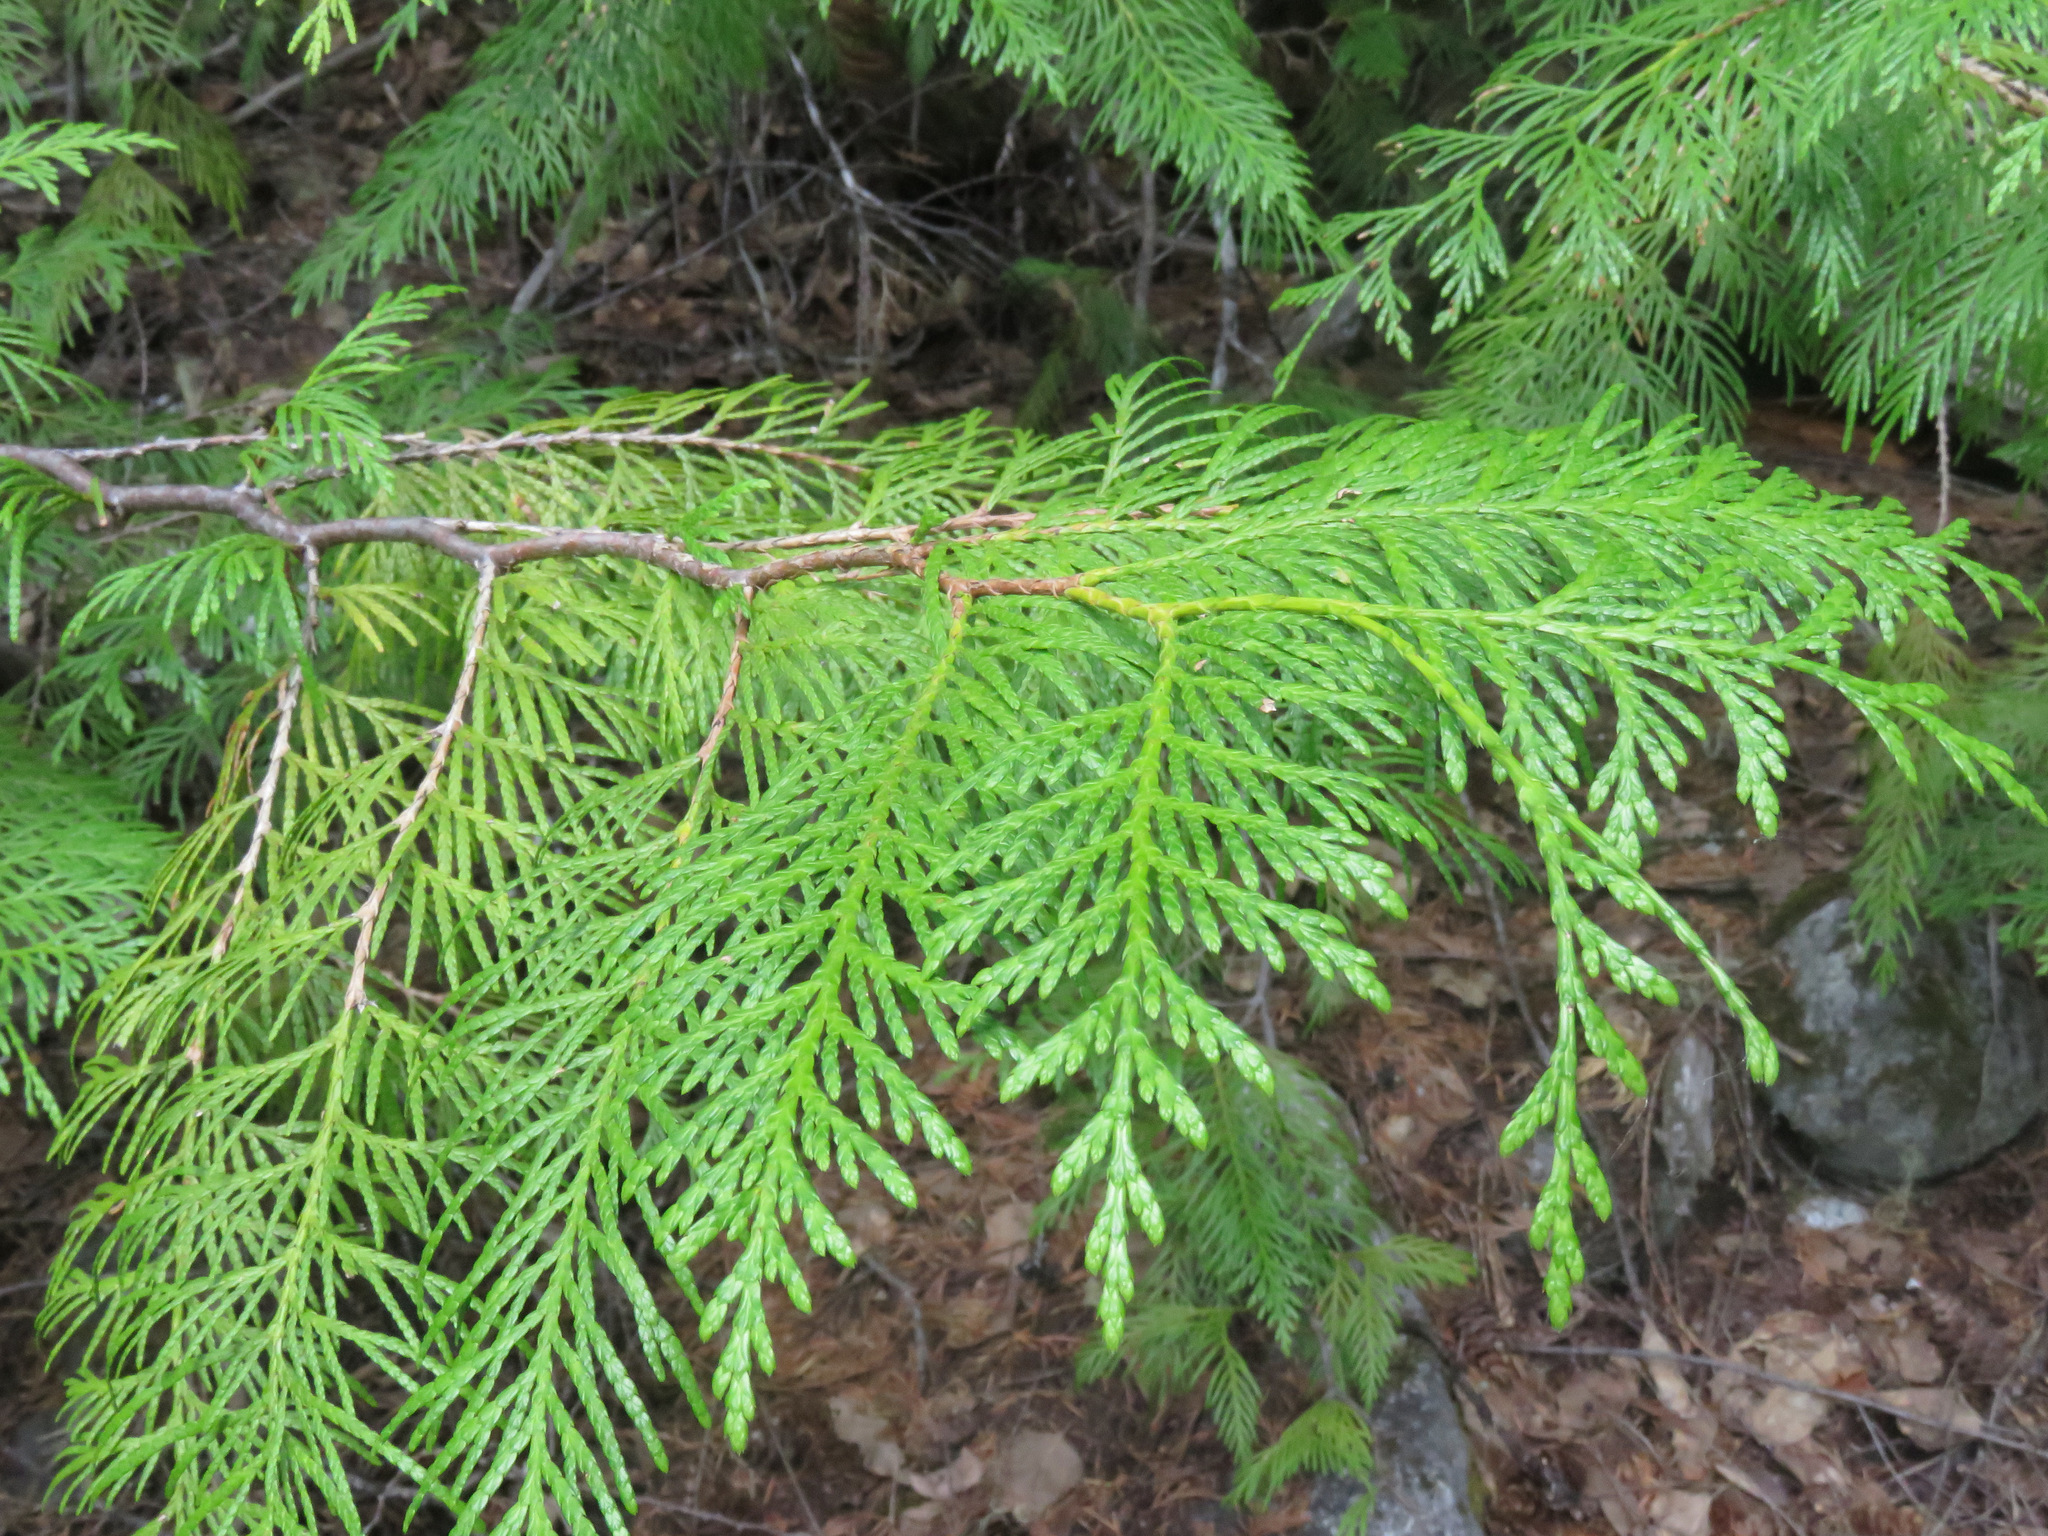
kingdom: Plantae
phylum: Tracheophyta
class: Pinopsida
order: Pinales
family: Cupressaceae
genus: Thuja
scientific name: Thuja plicata
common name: Western red-cedar
